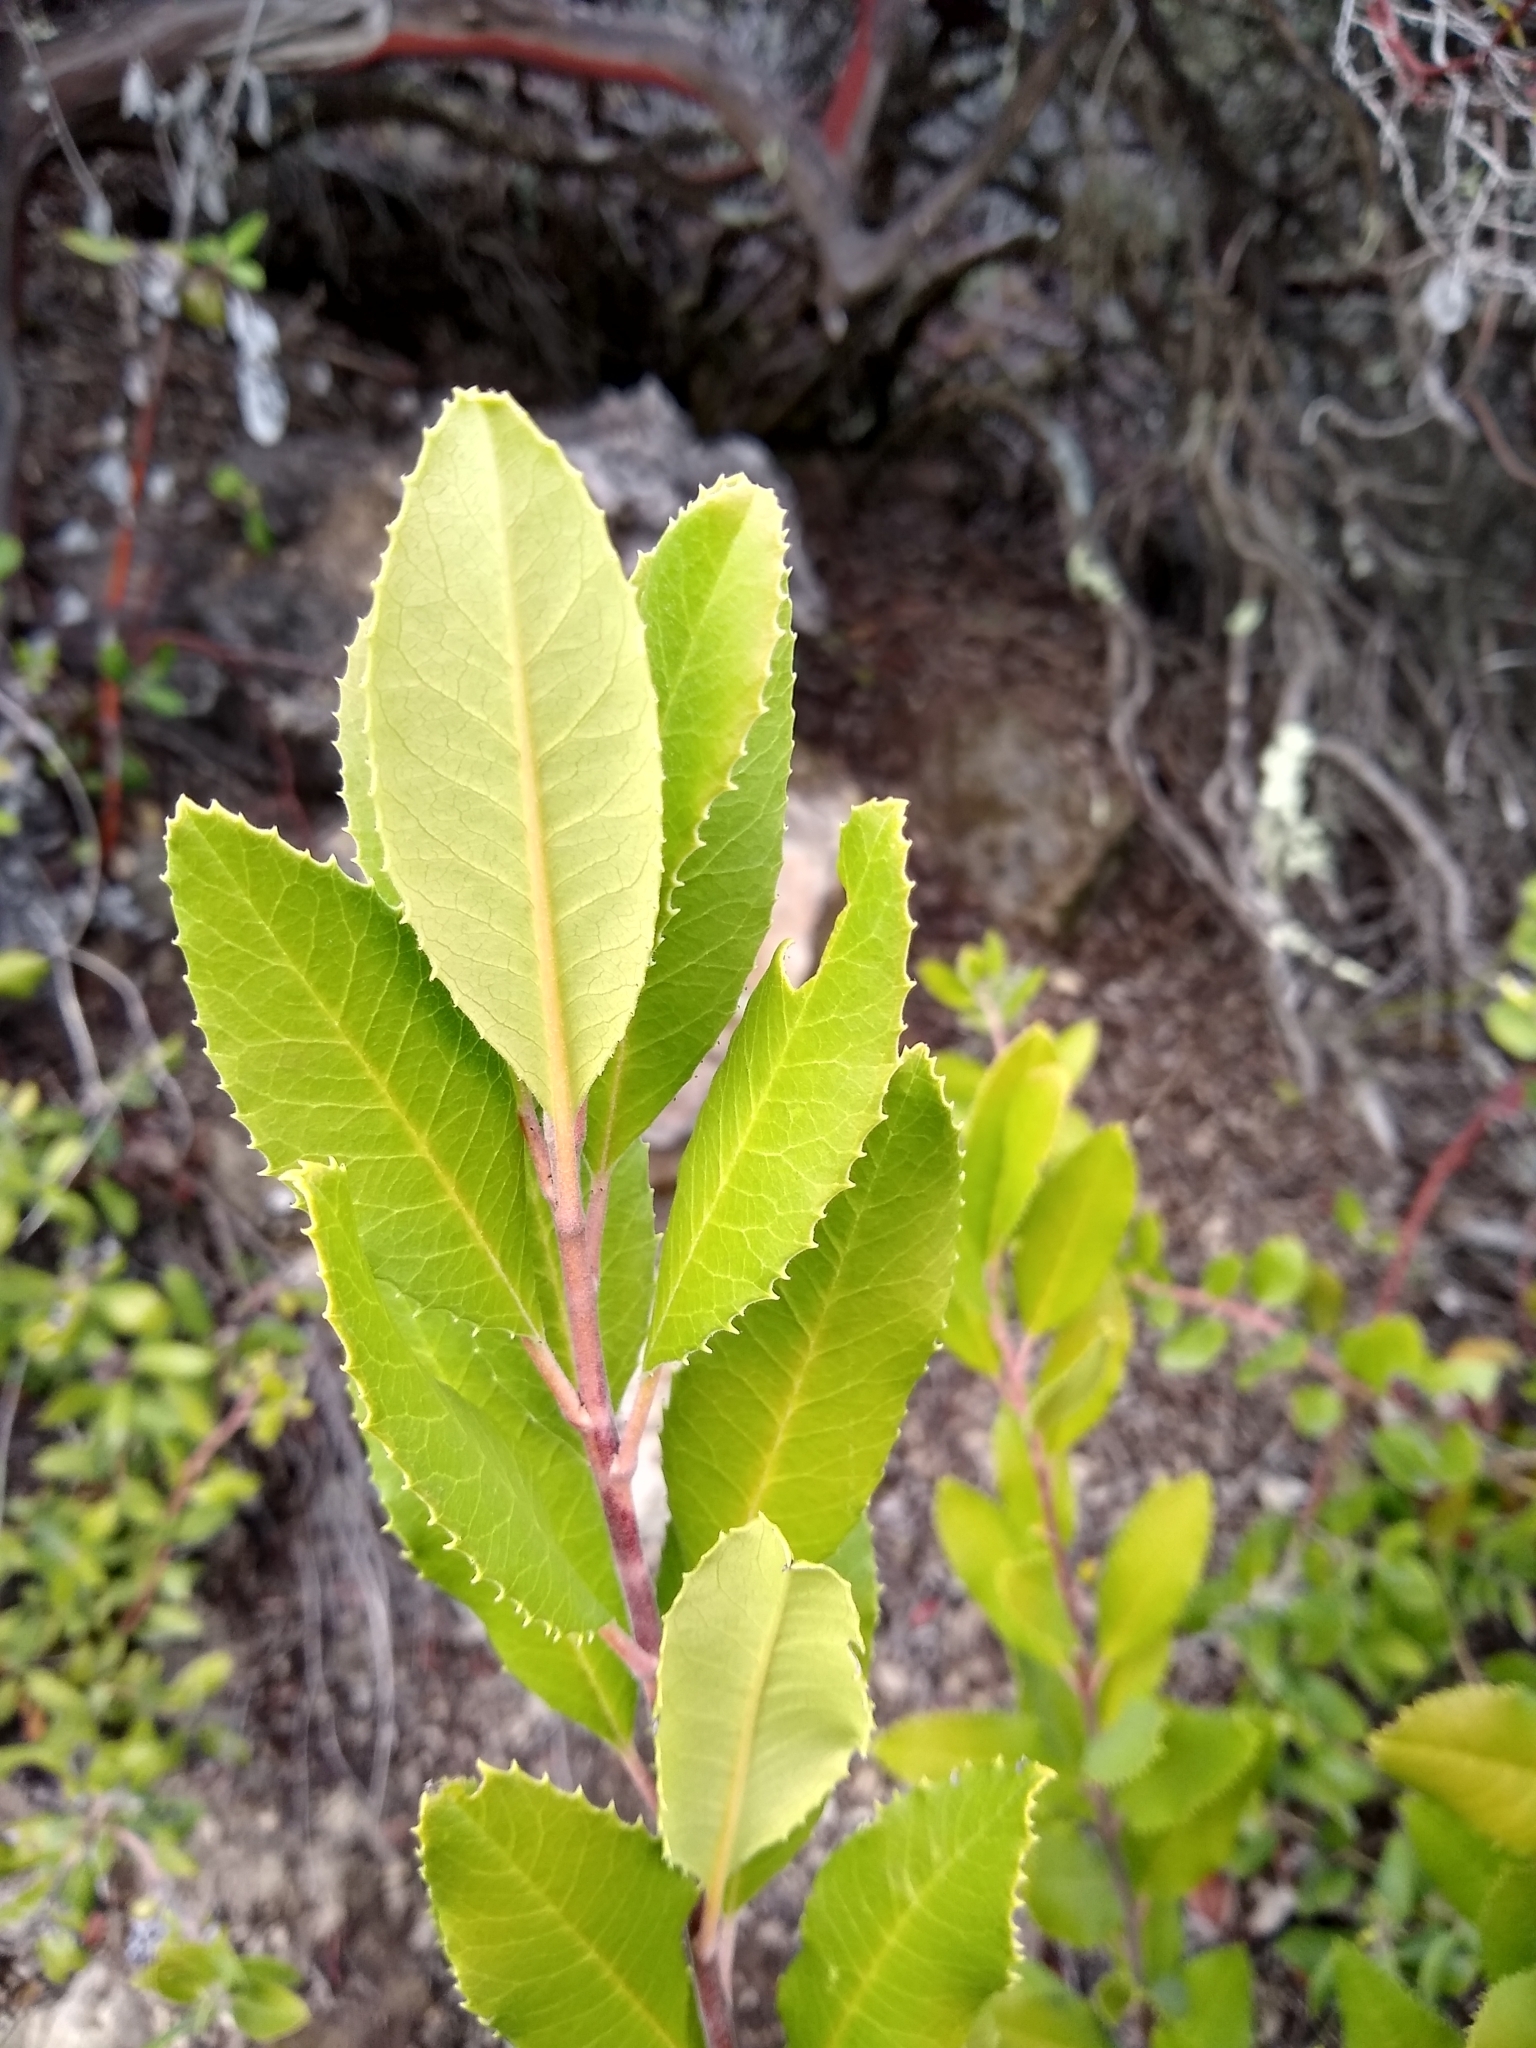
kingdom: Plantae
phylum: Tracheophyta
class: Magnoliopsida
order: Rosales
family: Rosaceae
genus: Heteromeles
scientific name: Heteromeles arbutifolia
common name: California-holly
